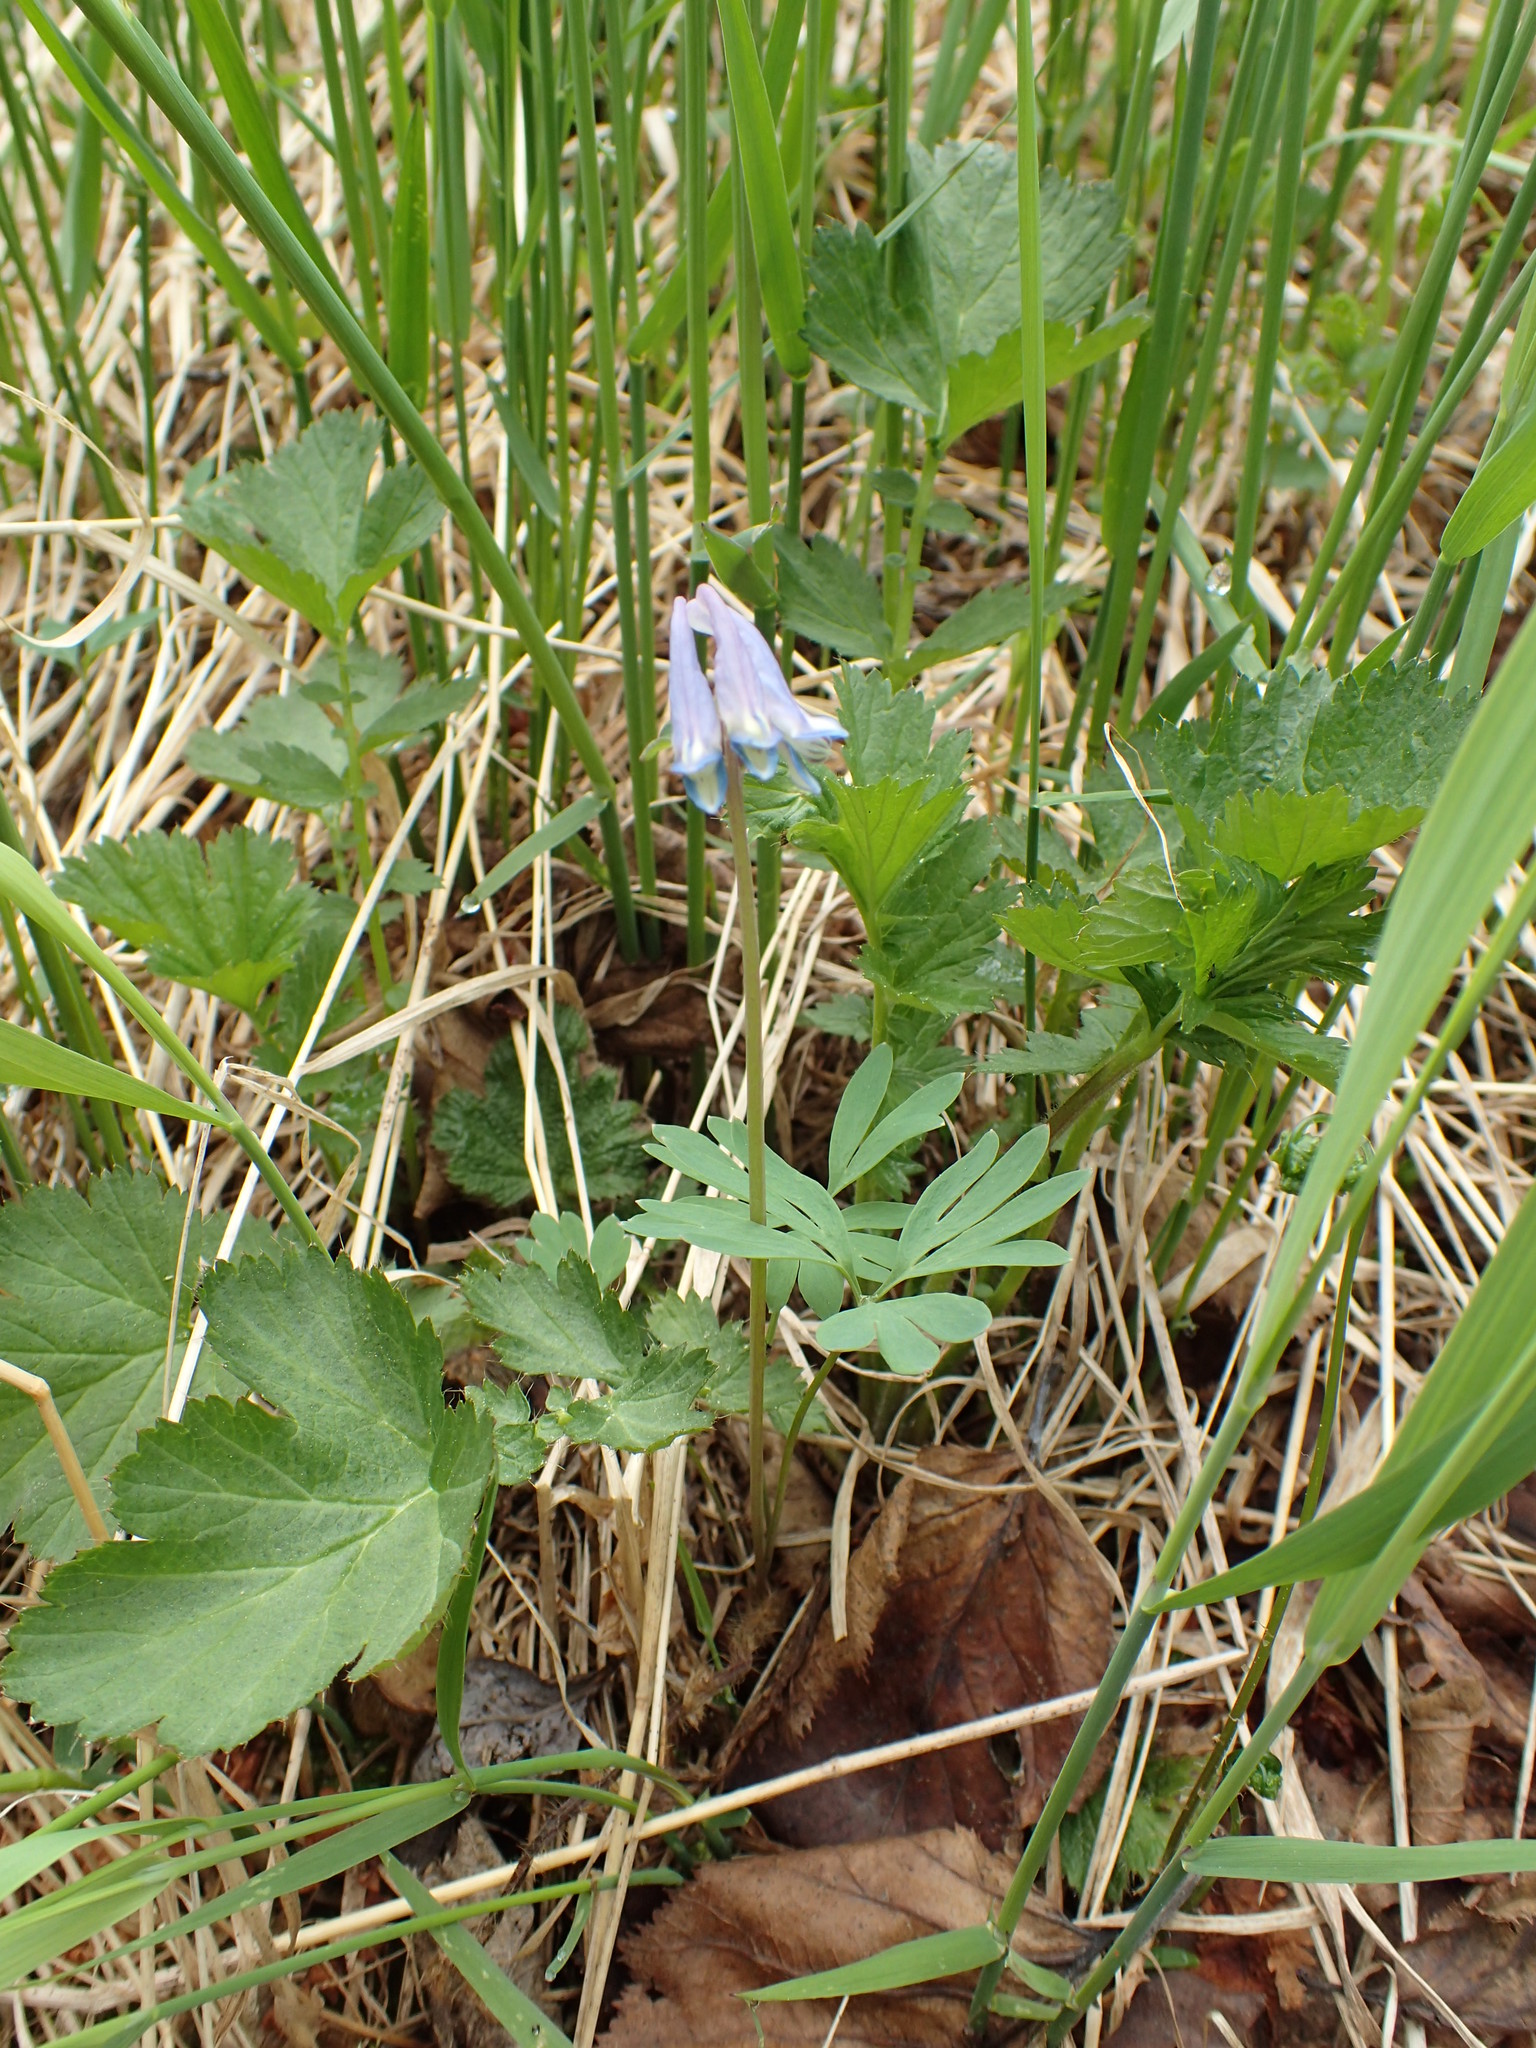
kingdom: Plantae
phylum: Tracheophyta
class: Magnoliopsida
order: Ranunculales
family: Papaveraceae
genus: Corydalis
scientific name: Corydalis pauciflora
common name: Blue corydalis
